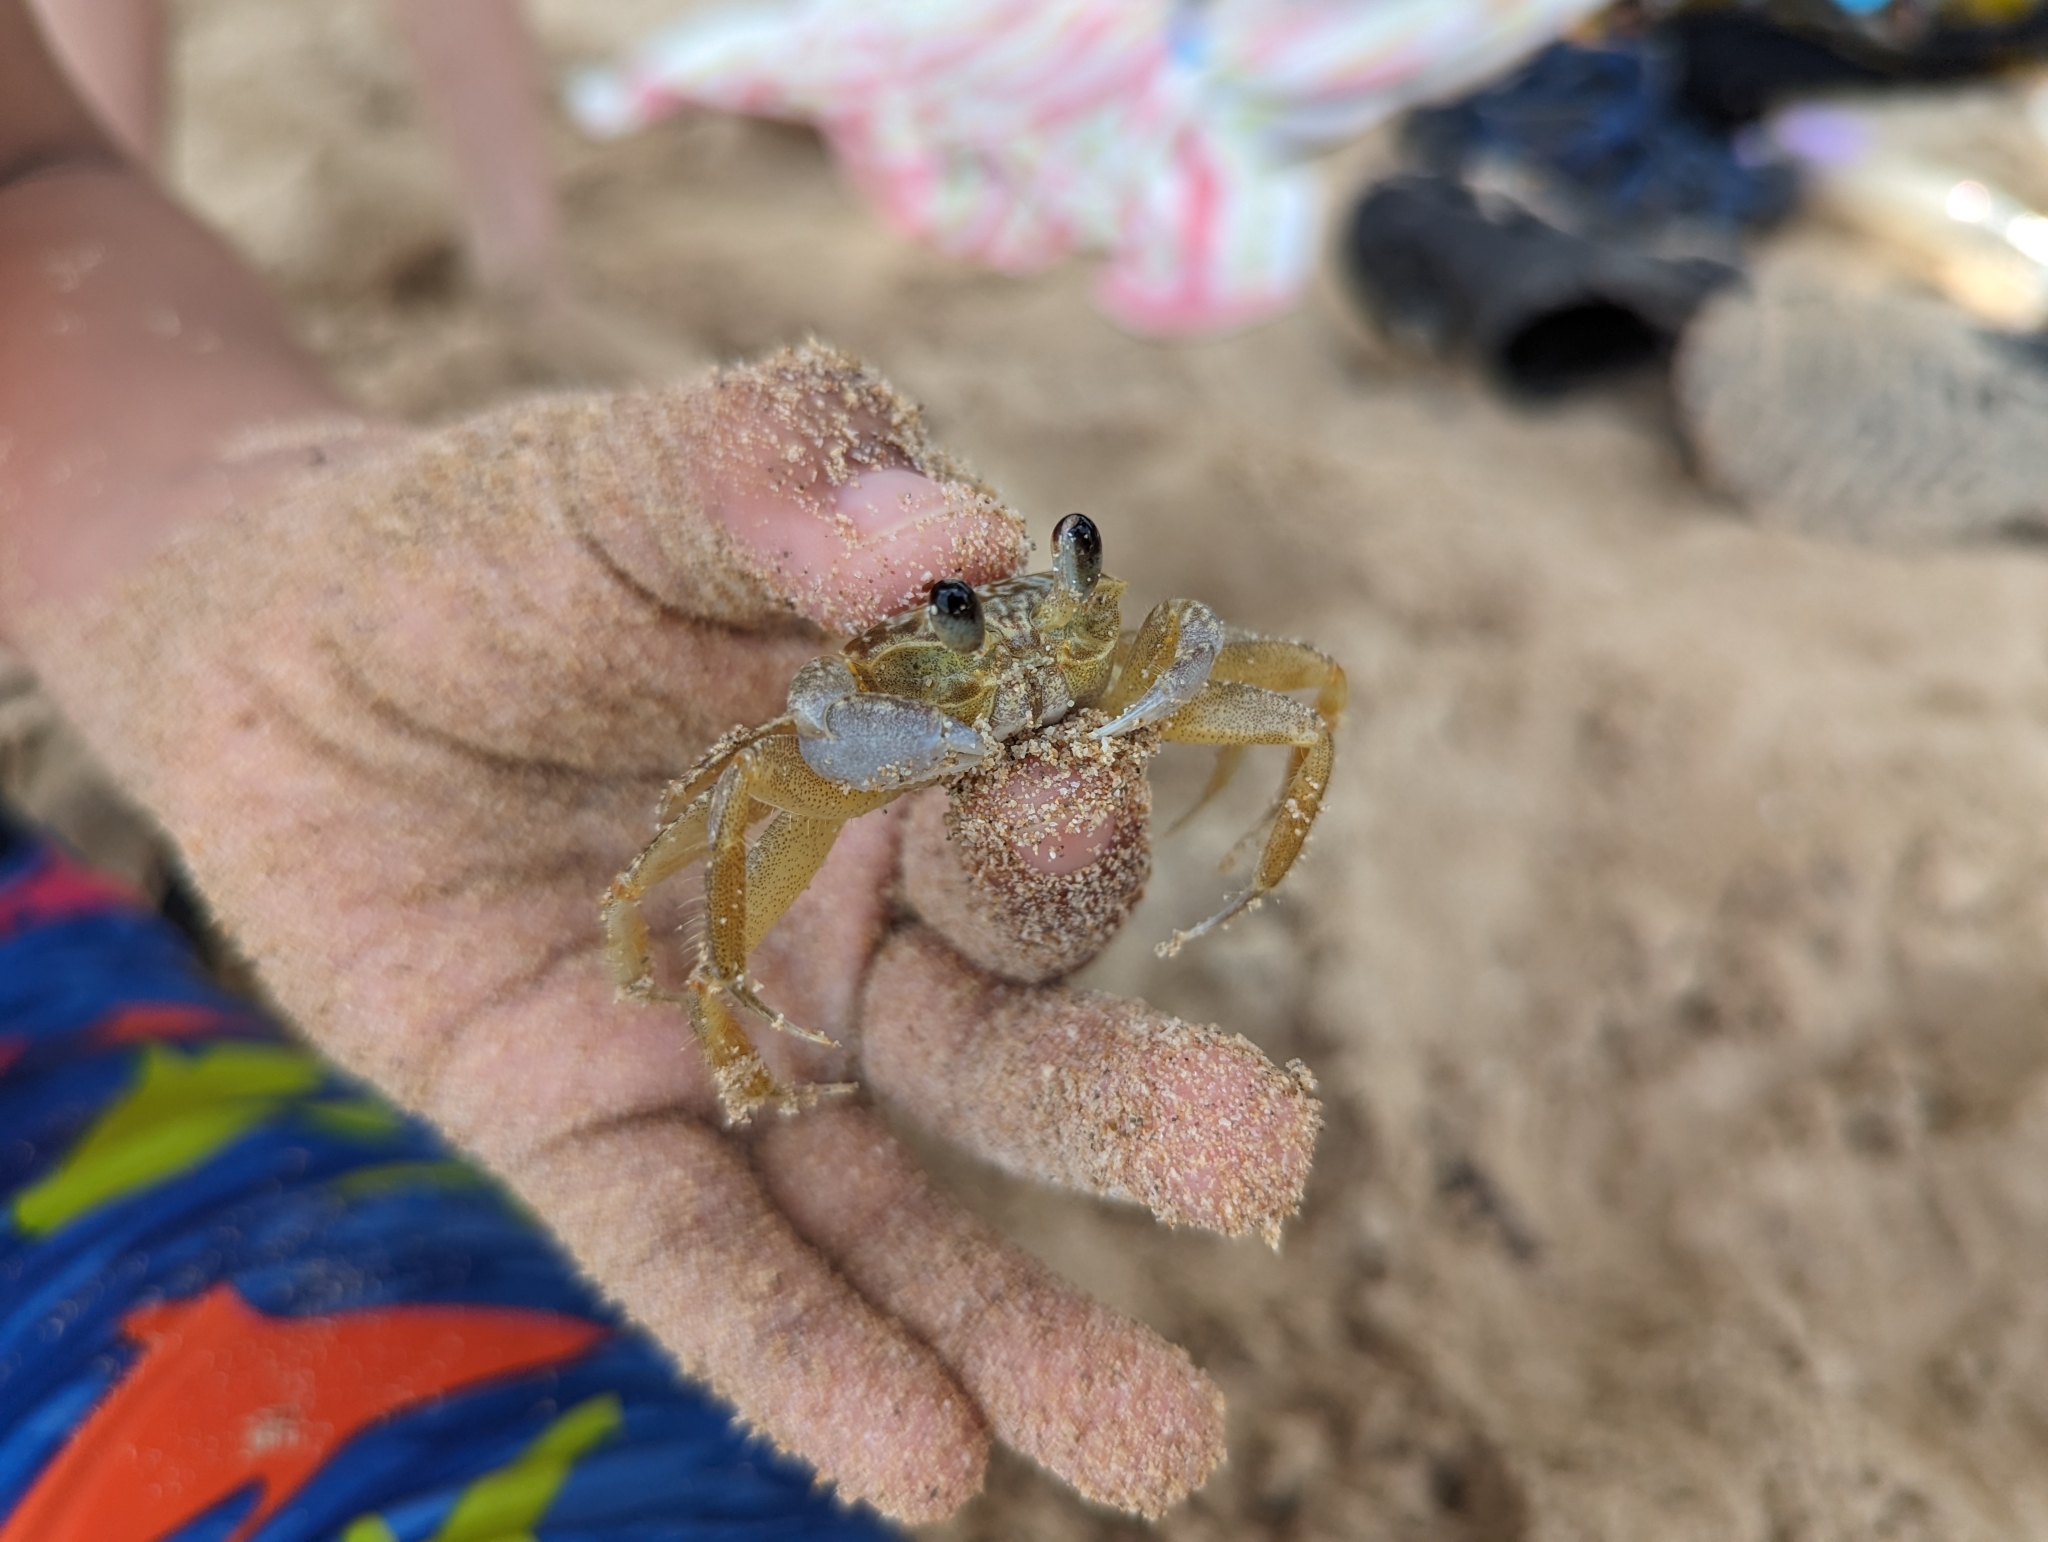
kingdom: Animalia
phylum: Arthropoda
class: Malacostraca
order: Decapoda
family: Ocypodidae
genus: Ocypode
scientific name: Ocypode quadrata
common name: Ghost crab
